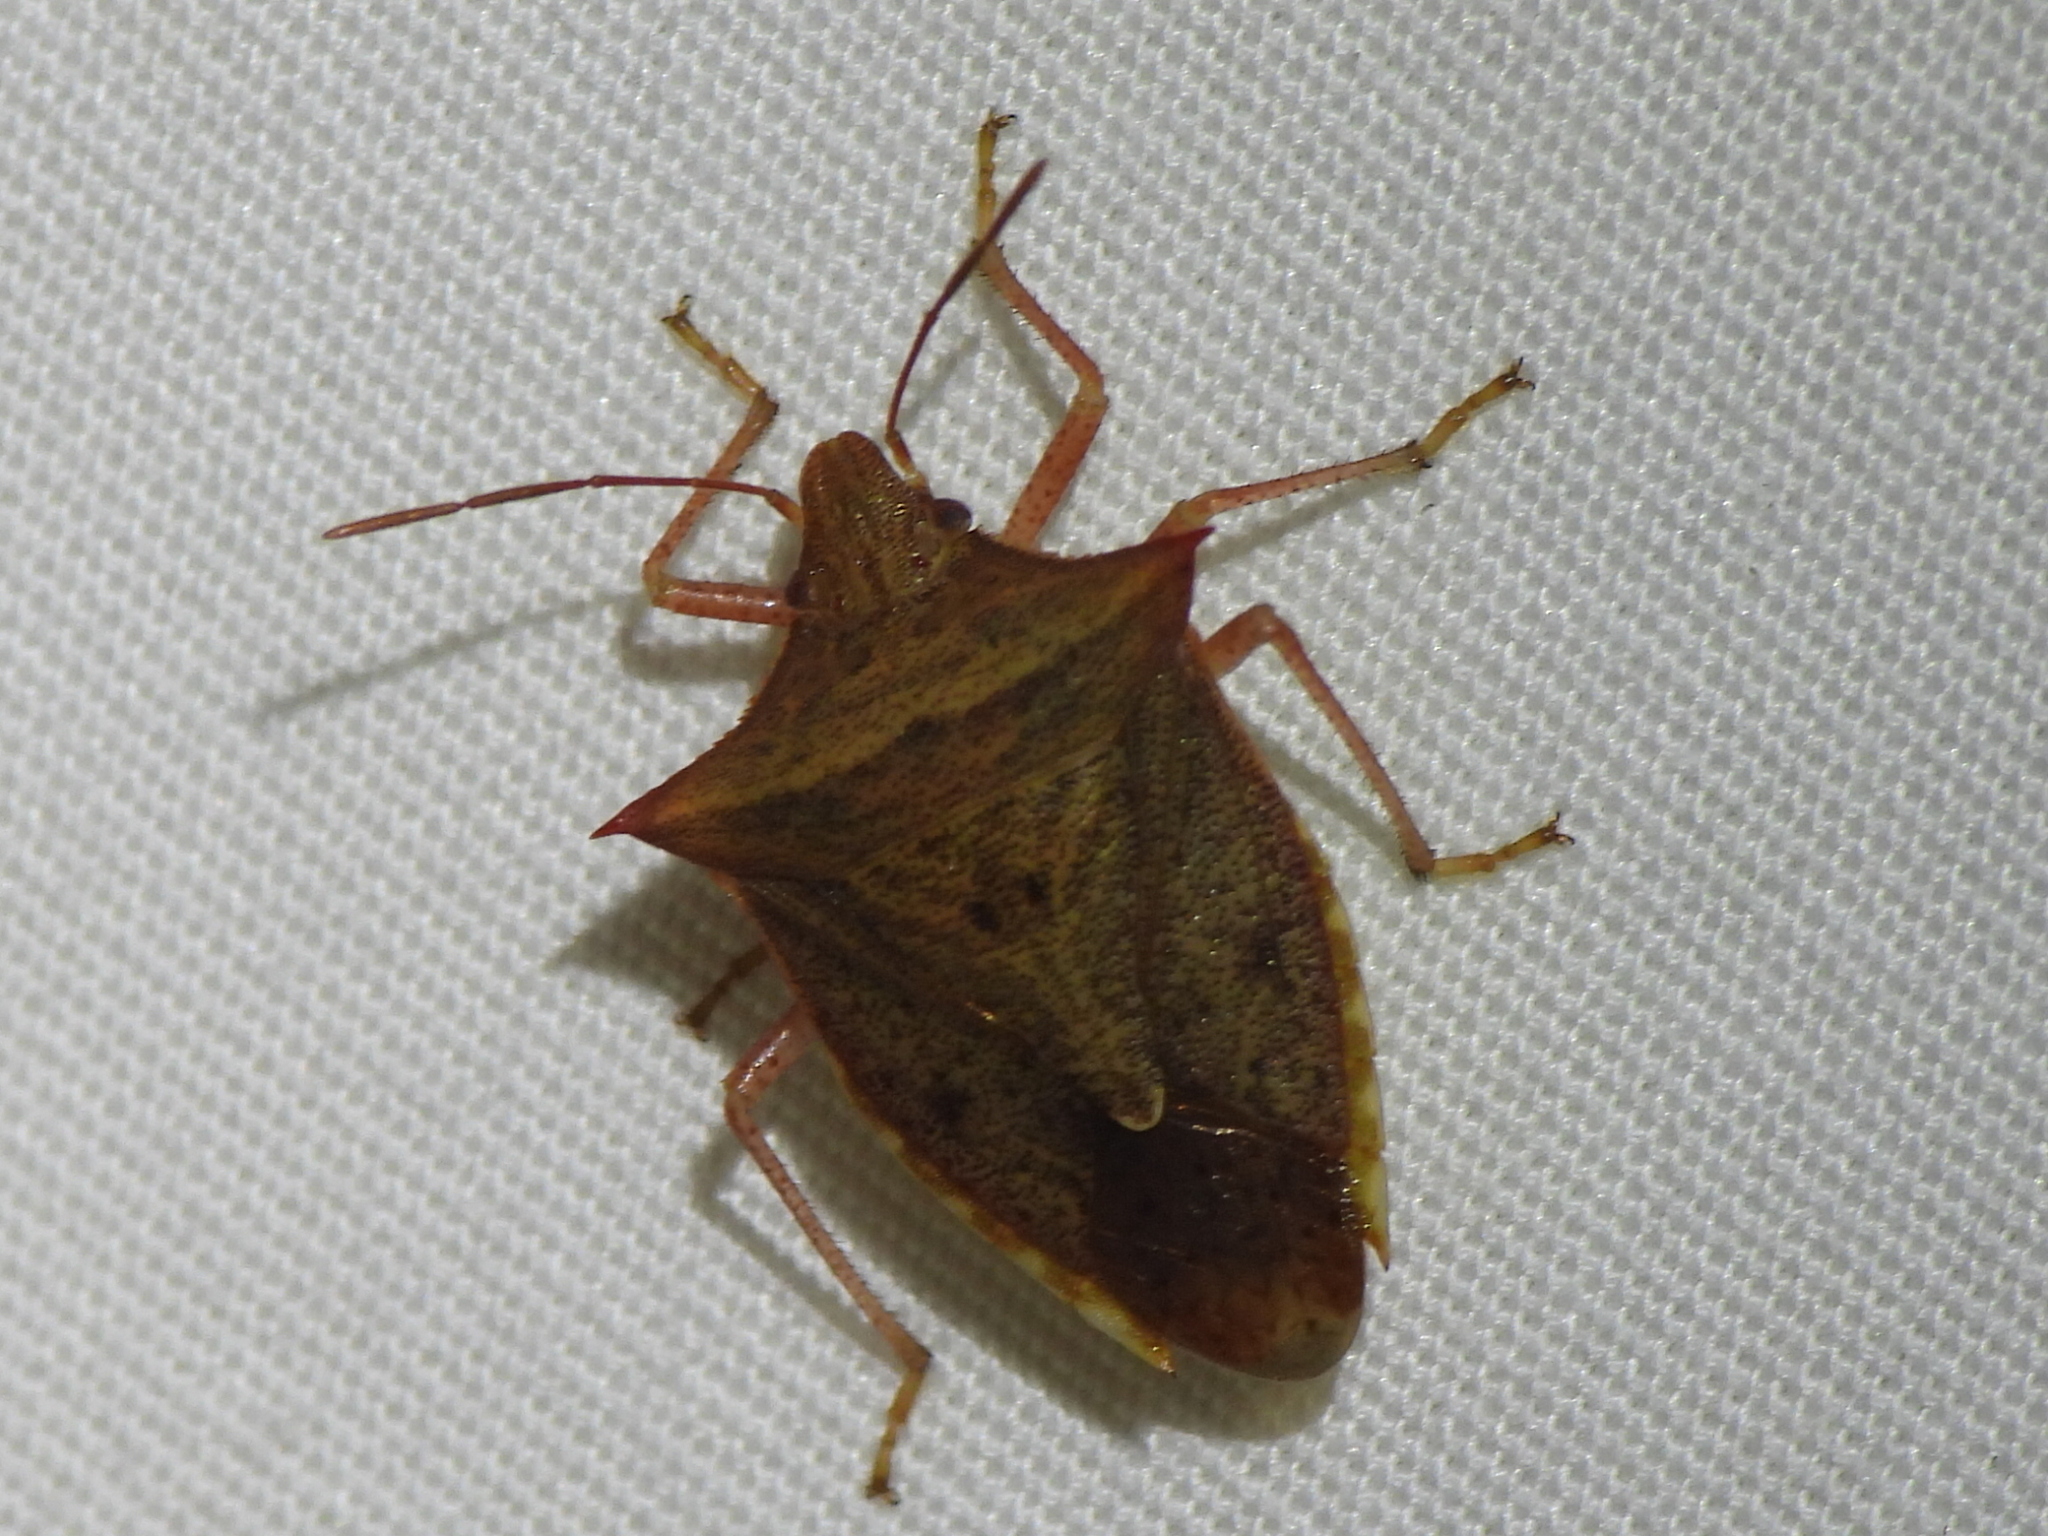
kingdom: Animalia
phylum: Arthropoda
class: Insecta
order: Hemiptera
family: Pentatomidae
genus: Euschistus
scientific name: Euschistus ictericus
